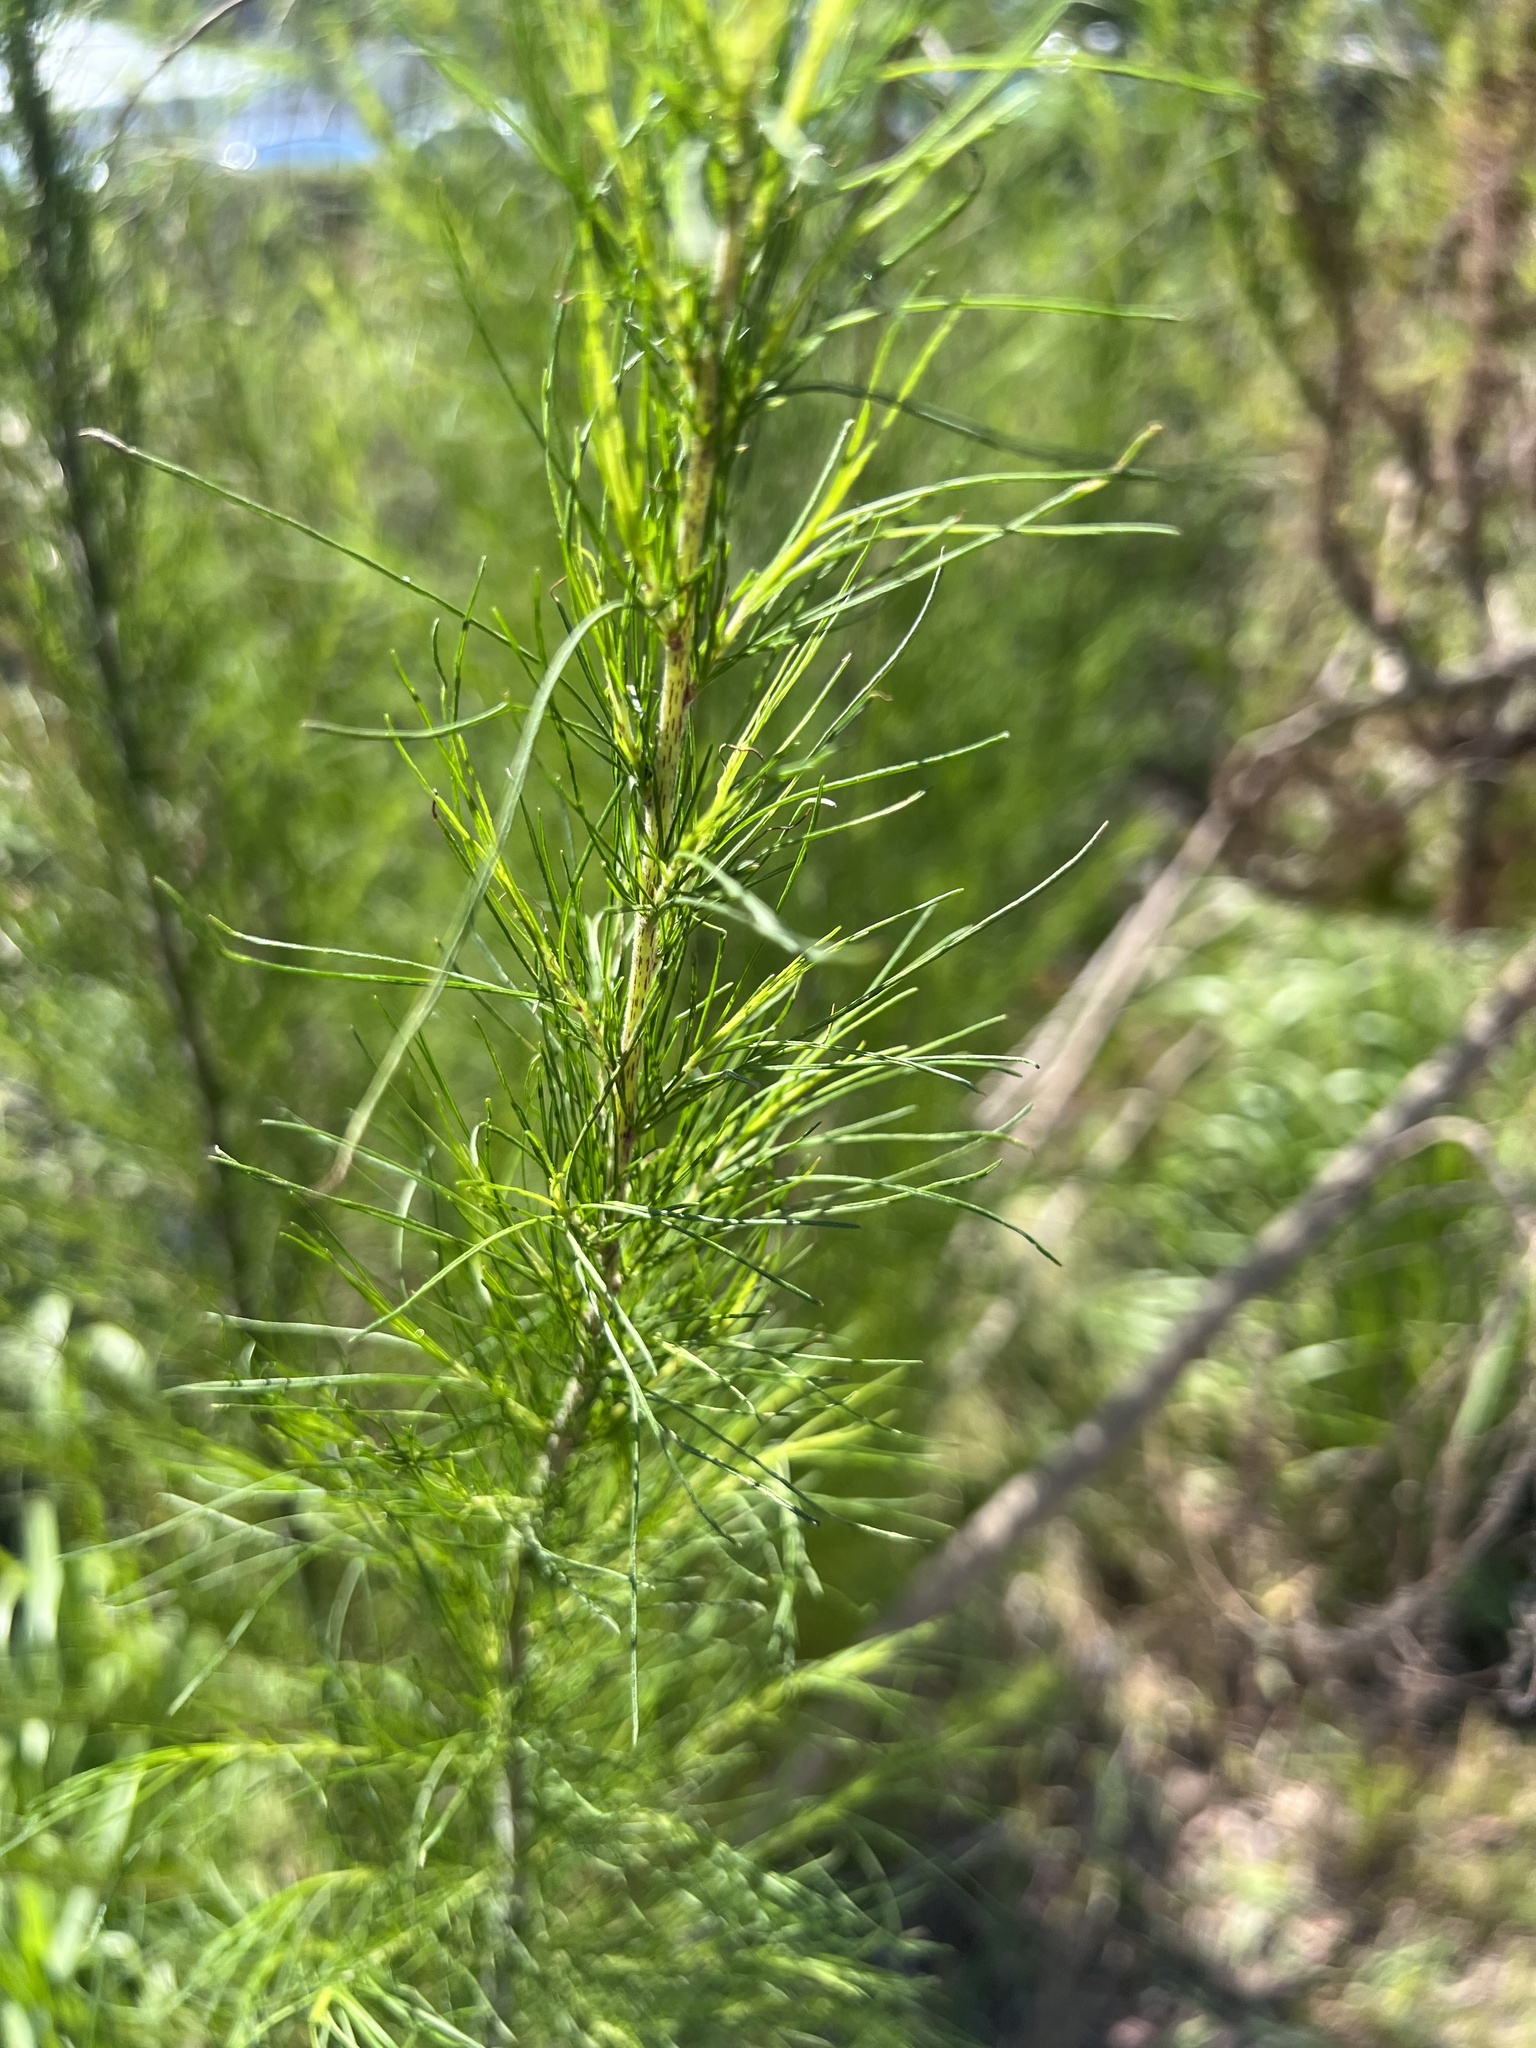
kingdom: Plantae
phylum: Tracheophyta
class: Magnoliopsida
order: Asterales
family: Asteraceae
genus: Eupatorium
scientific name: Eupatorium capillifolium
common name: Dog-fennel
